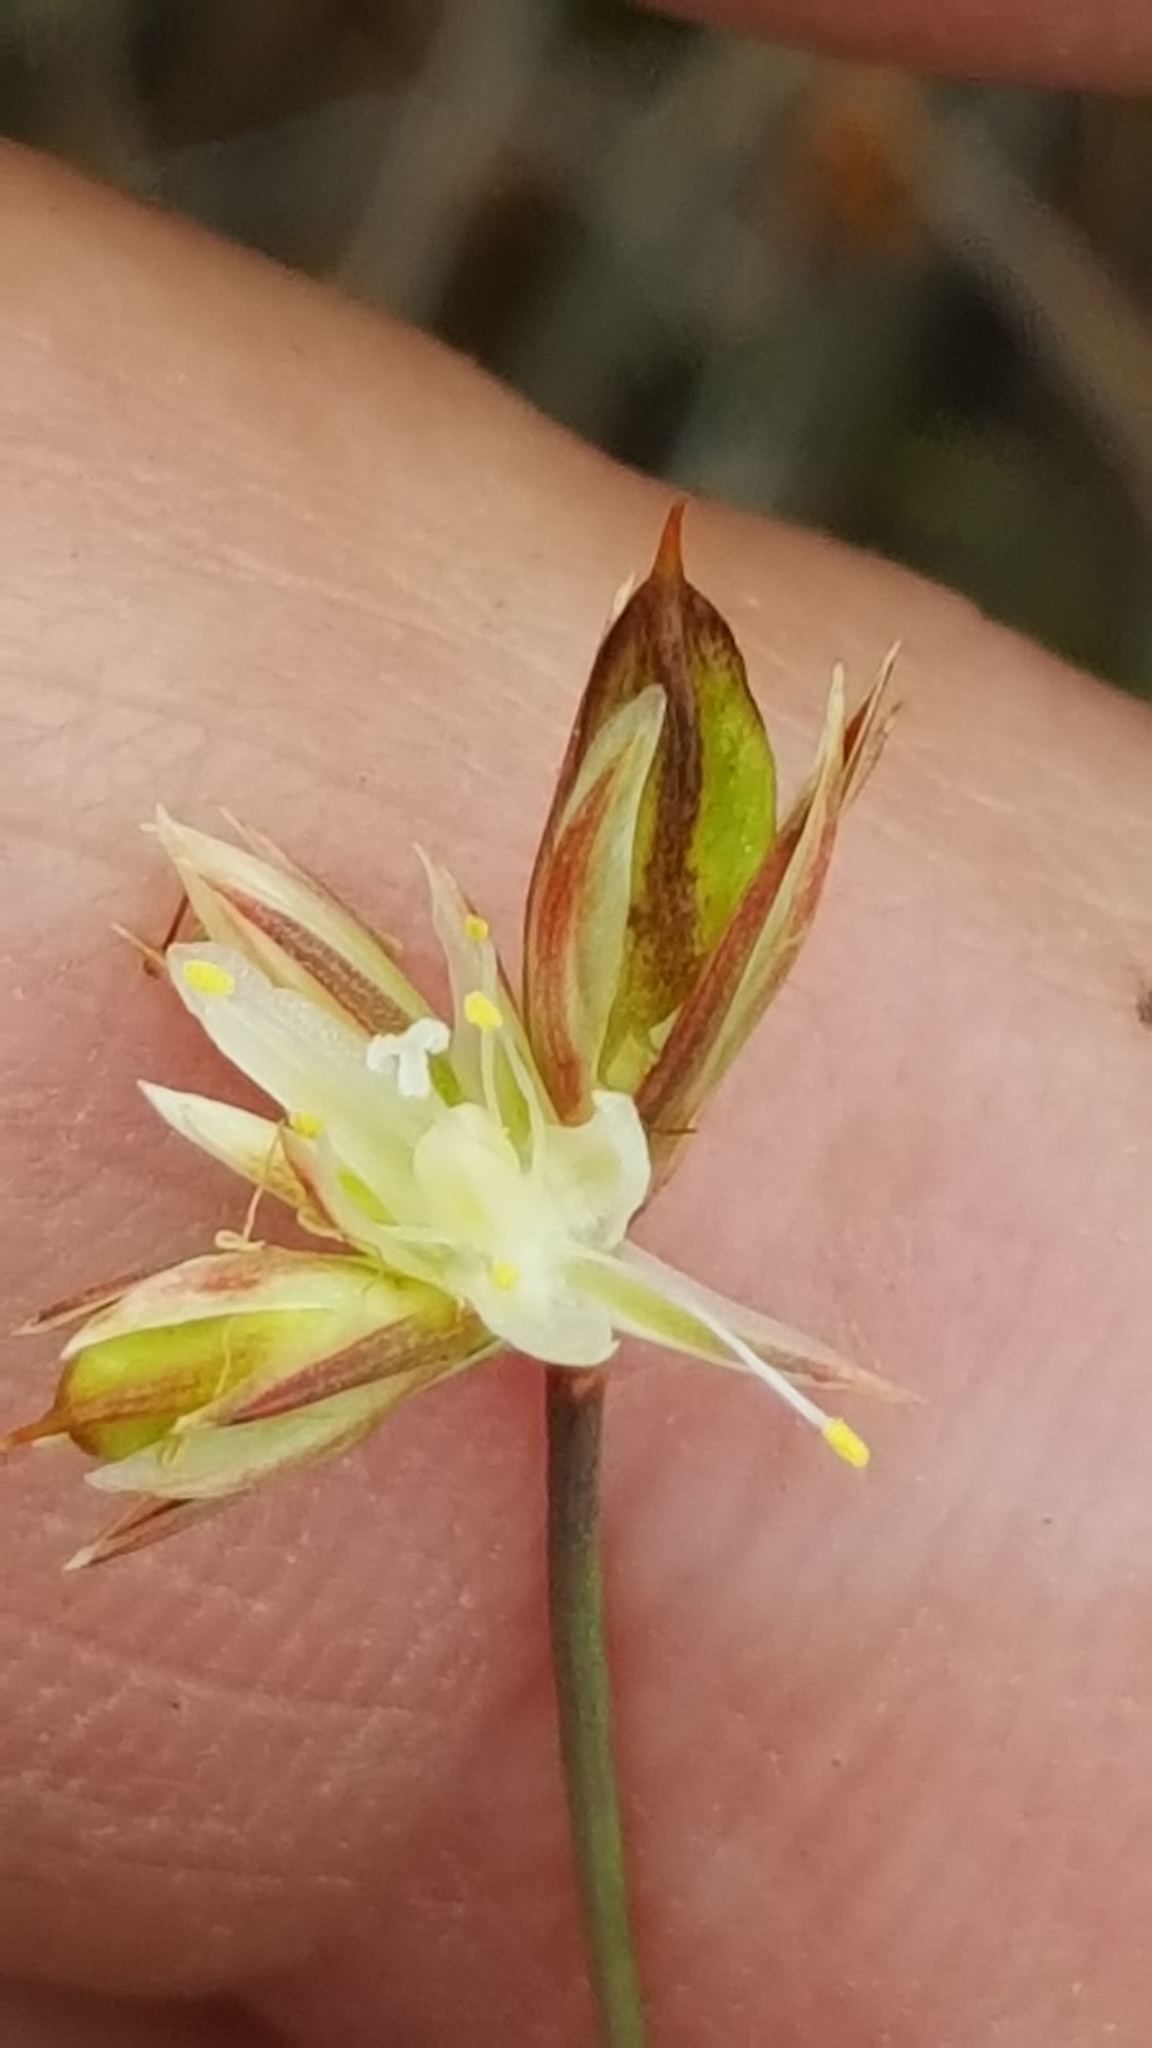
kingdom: Plantae
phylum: Tracheophyta
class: Liliopsida
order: Poales
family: Juncaceae
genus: Juncus
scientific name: Juncus stygius
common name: Bog rush
